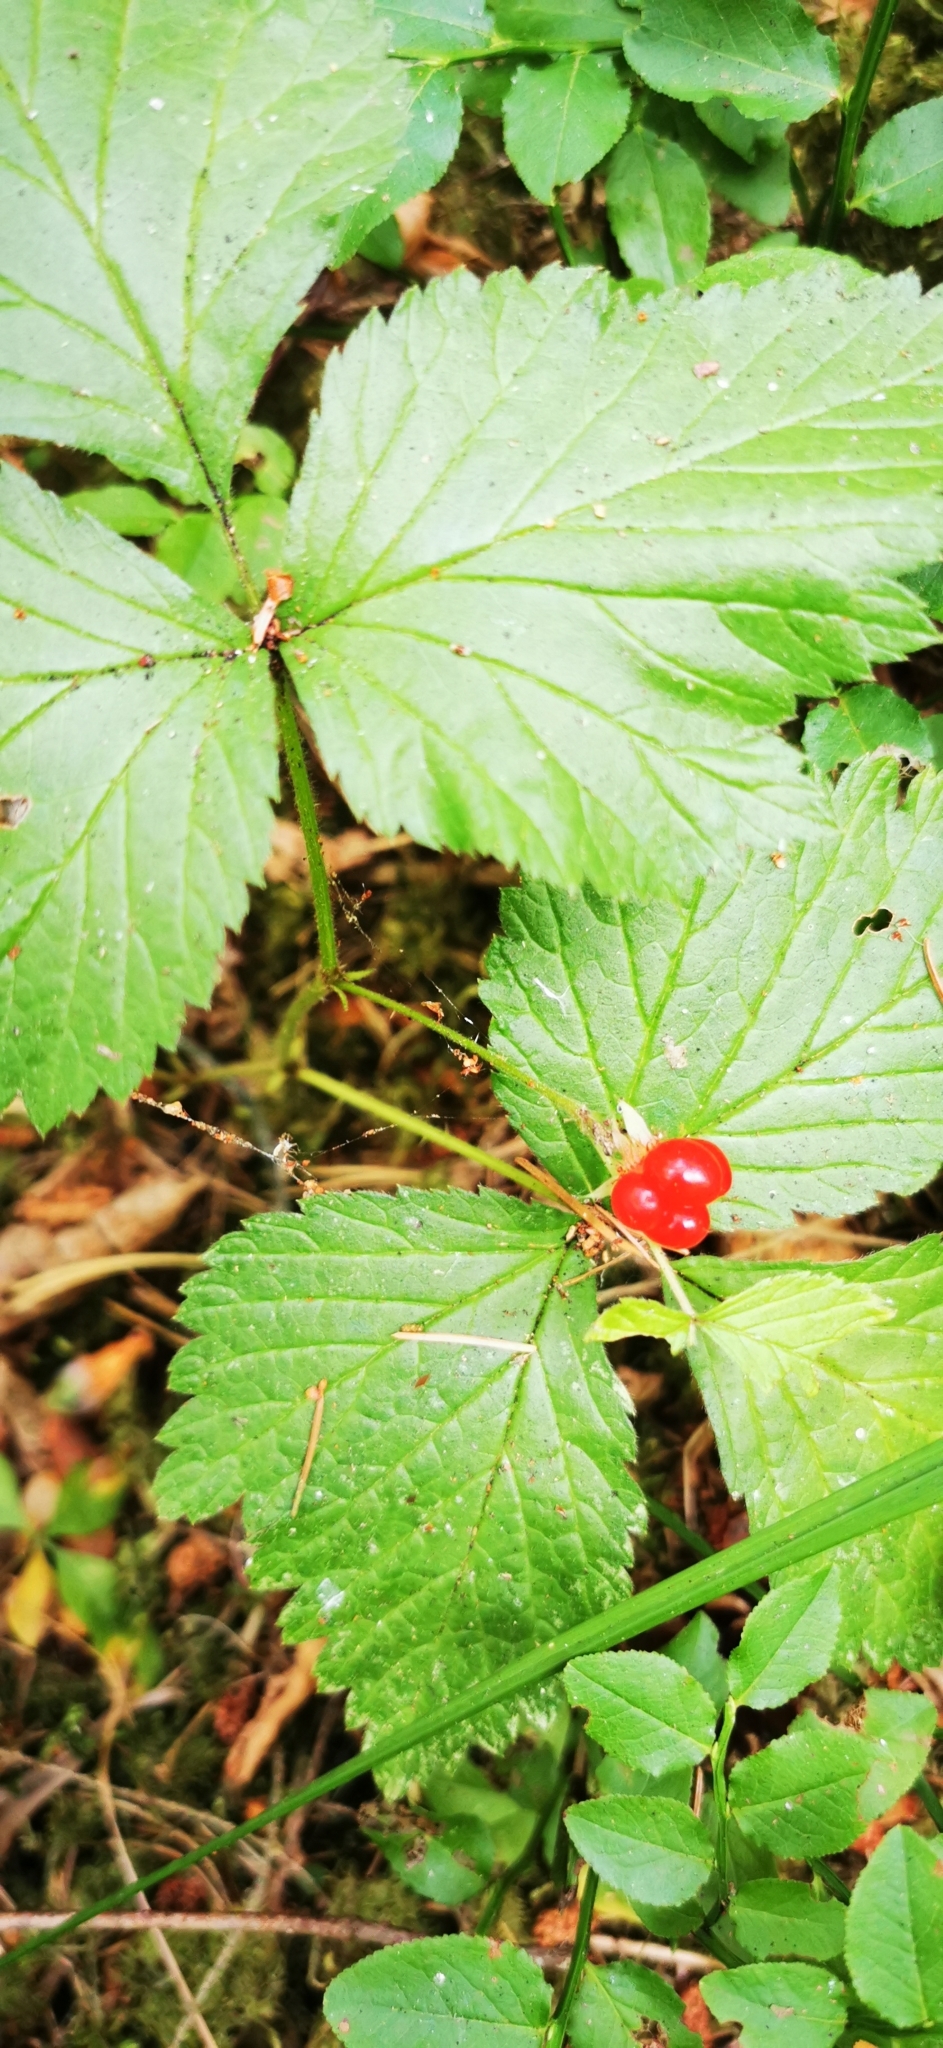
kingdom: Plantae
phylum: Tracheophyta
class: Magnoliopsida
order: Rosales
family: Rosaceae
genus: Rubus
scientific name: Rubus saxatilis
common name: Stone bramble
